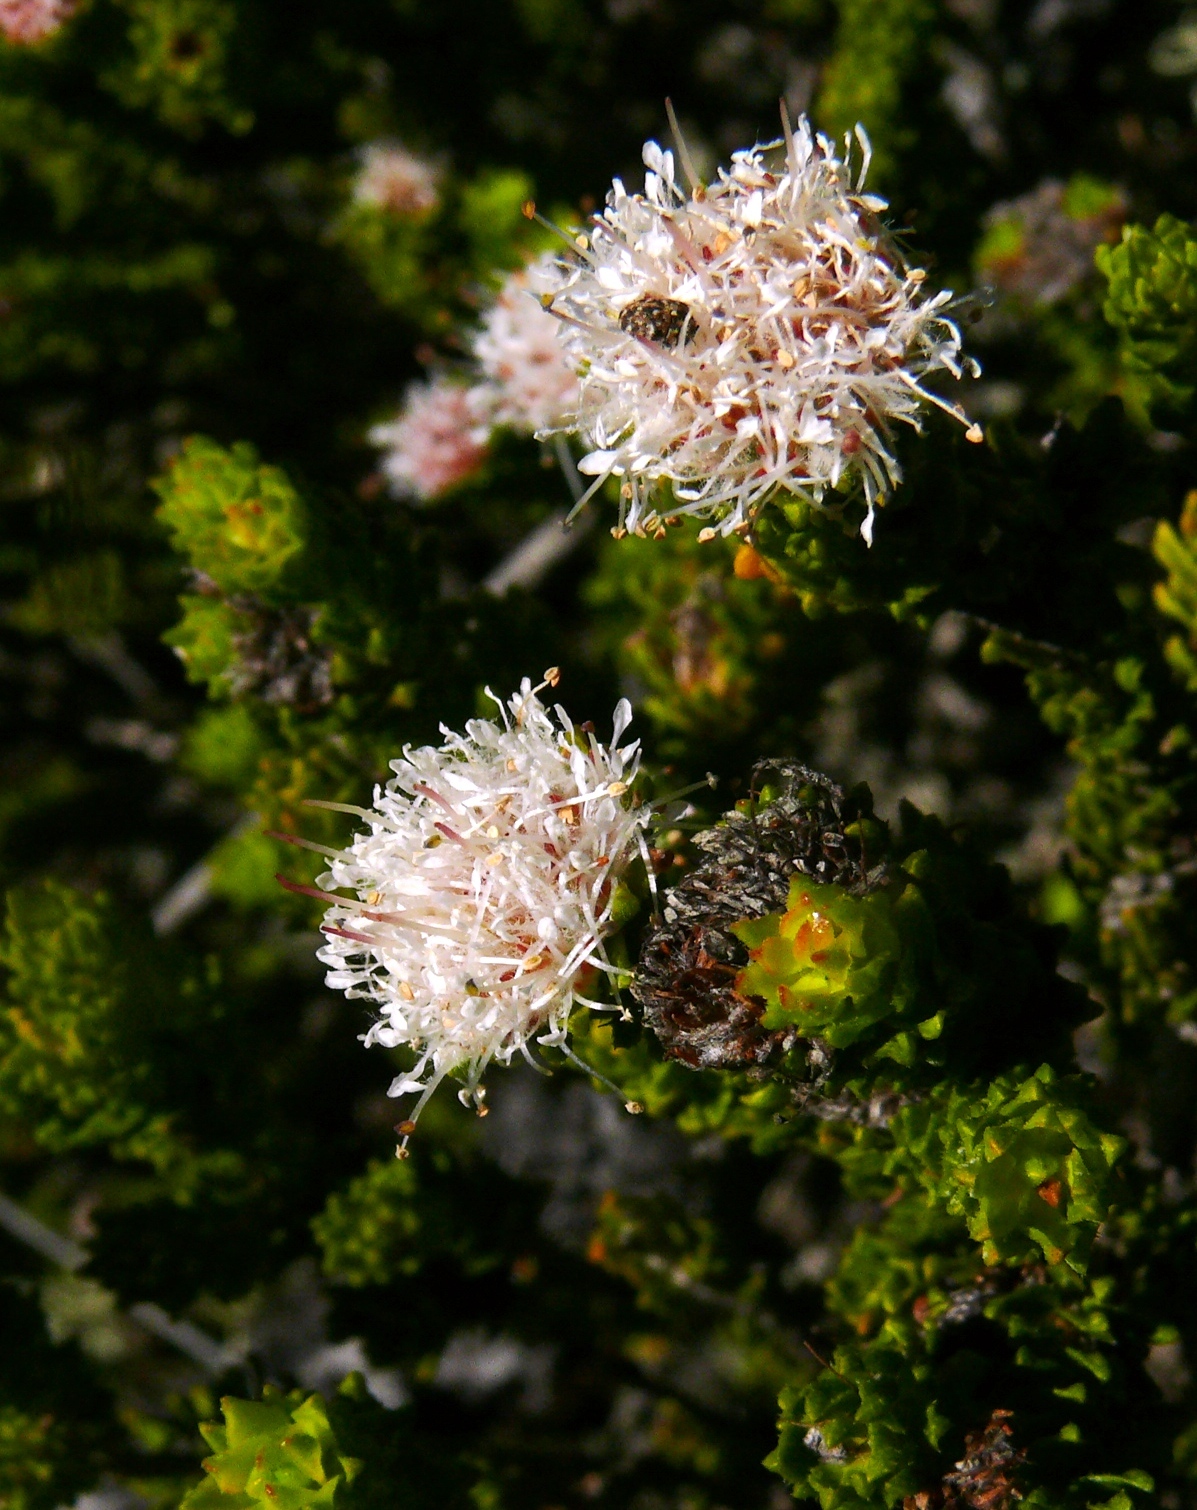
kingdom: Plantae
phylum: Tracheophyta
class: Magnoliopsida
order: Sapindales
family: Rutaceae
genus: Agathosma
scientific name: Agathosma eriantha
